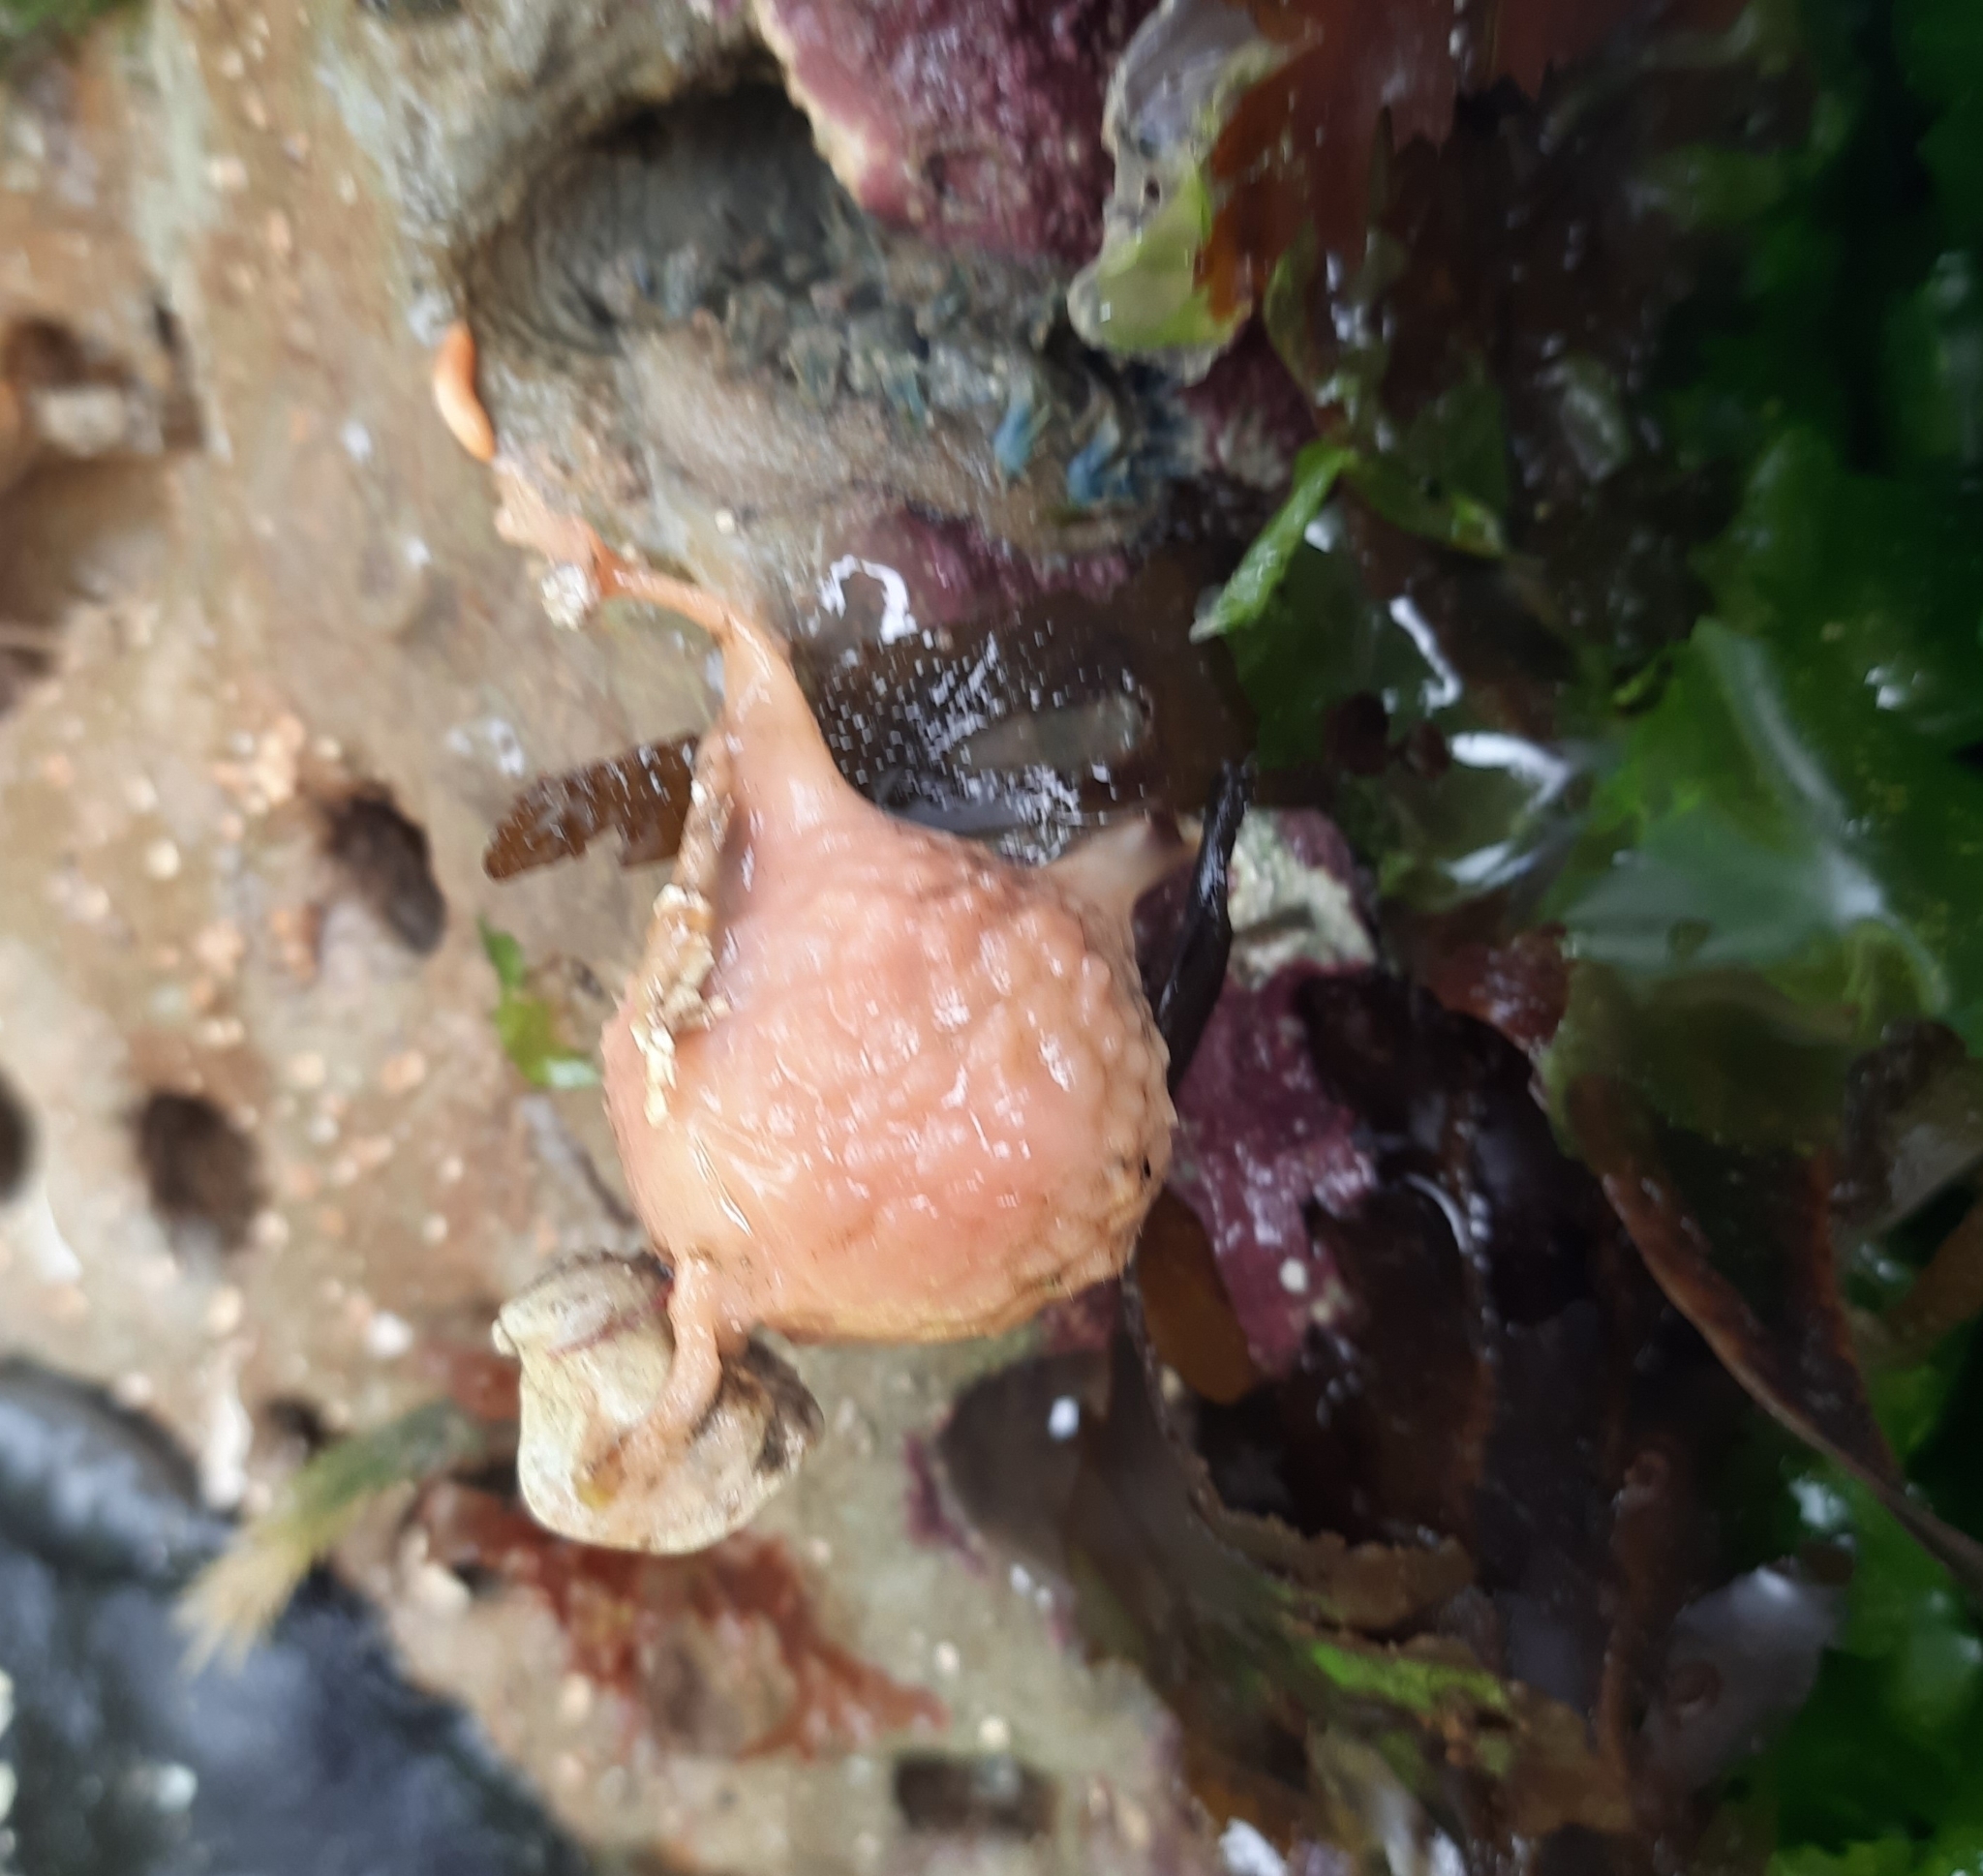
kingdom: Animalia
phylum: Porifera
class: Demospongiae
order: Tethyida
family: Tethyidae
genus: Tethya
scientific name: Tethya bergquistae
